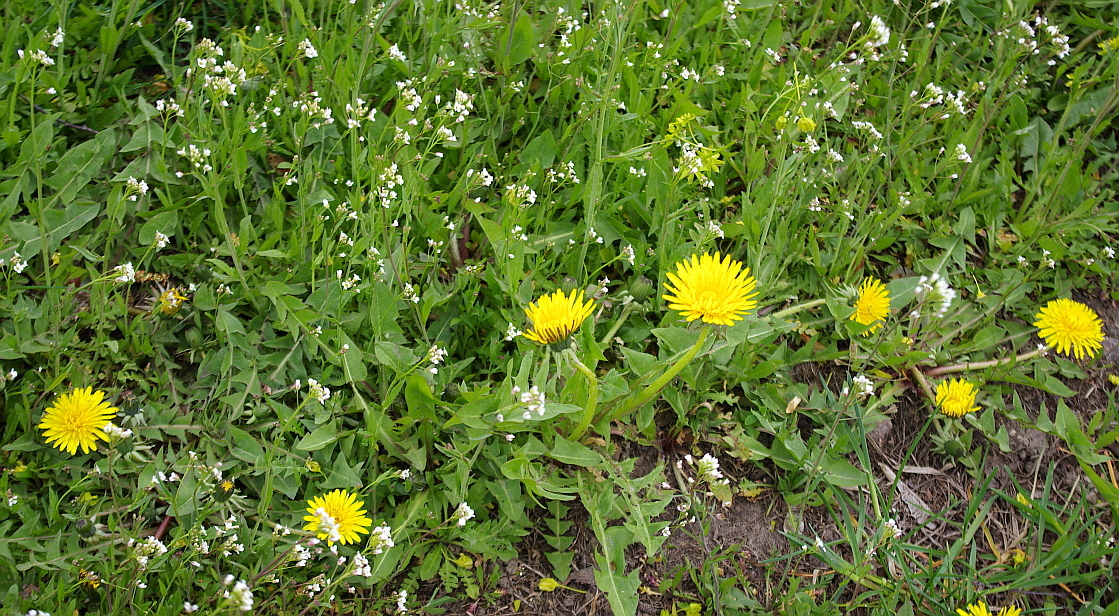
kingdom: Plantae
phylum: Tracheophyta
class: Magnoliopsida
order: Brassicales
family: Brassicaceae
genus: Capsella
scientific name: Capsella bursa-pastoris
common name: Shepherd's purse
